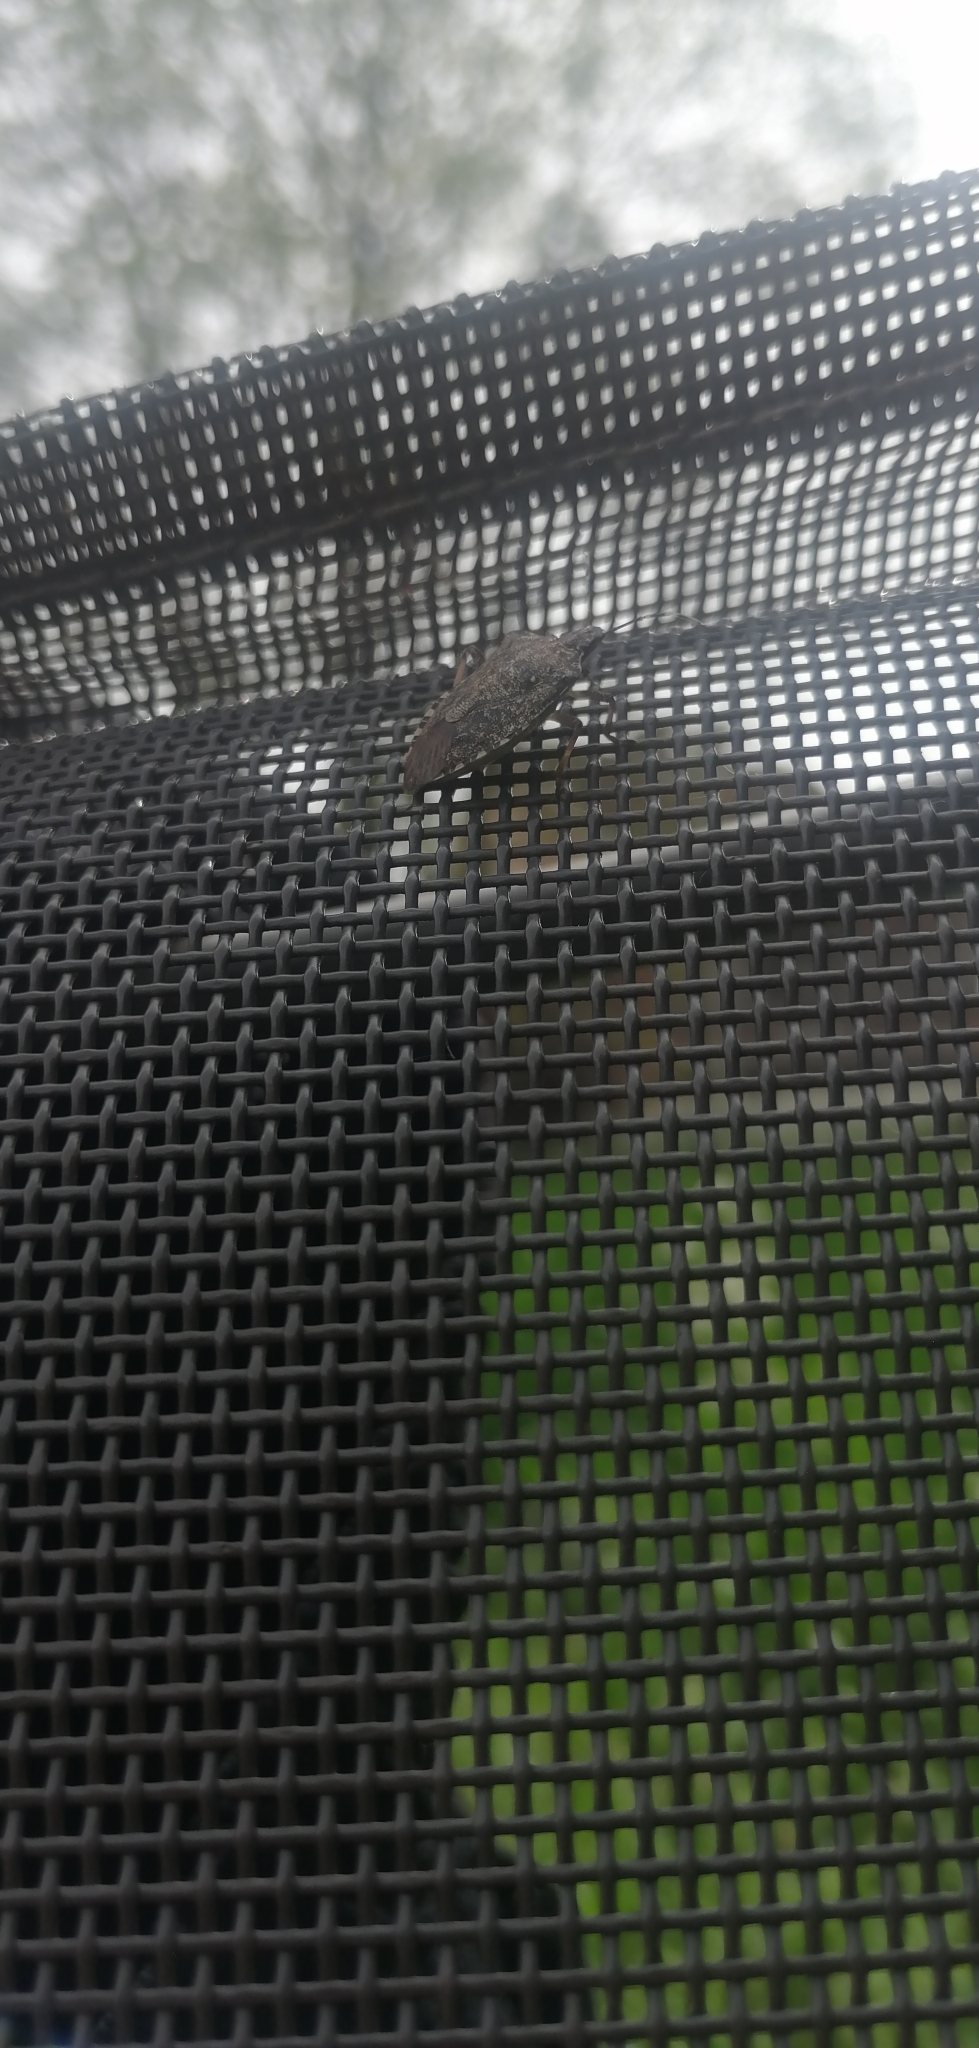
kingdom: Animalia
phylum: Arthropoda
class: Insecta
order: Hemiptera
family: Pentatomidae
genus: Halyomorpha
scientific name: Halyomorpha halys
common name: Brown marmorated stink bug
